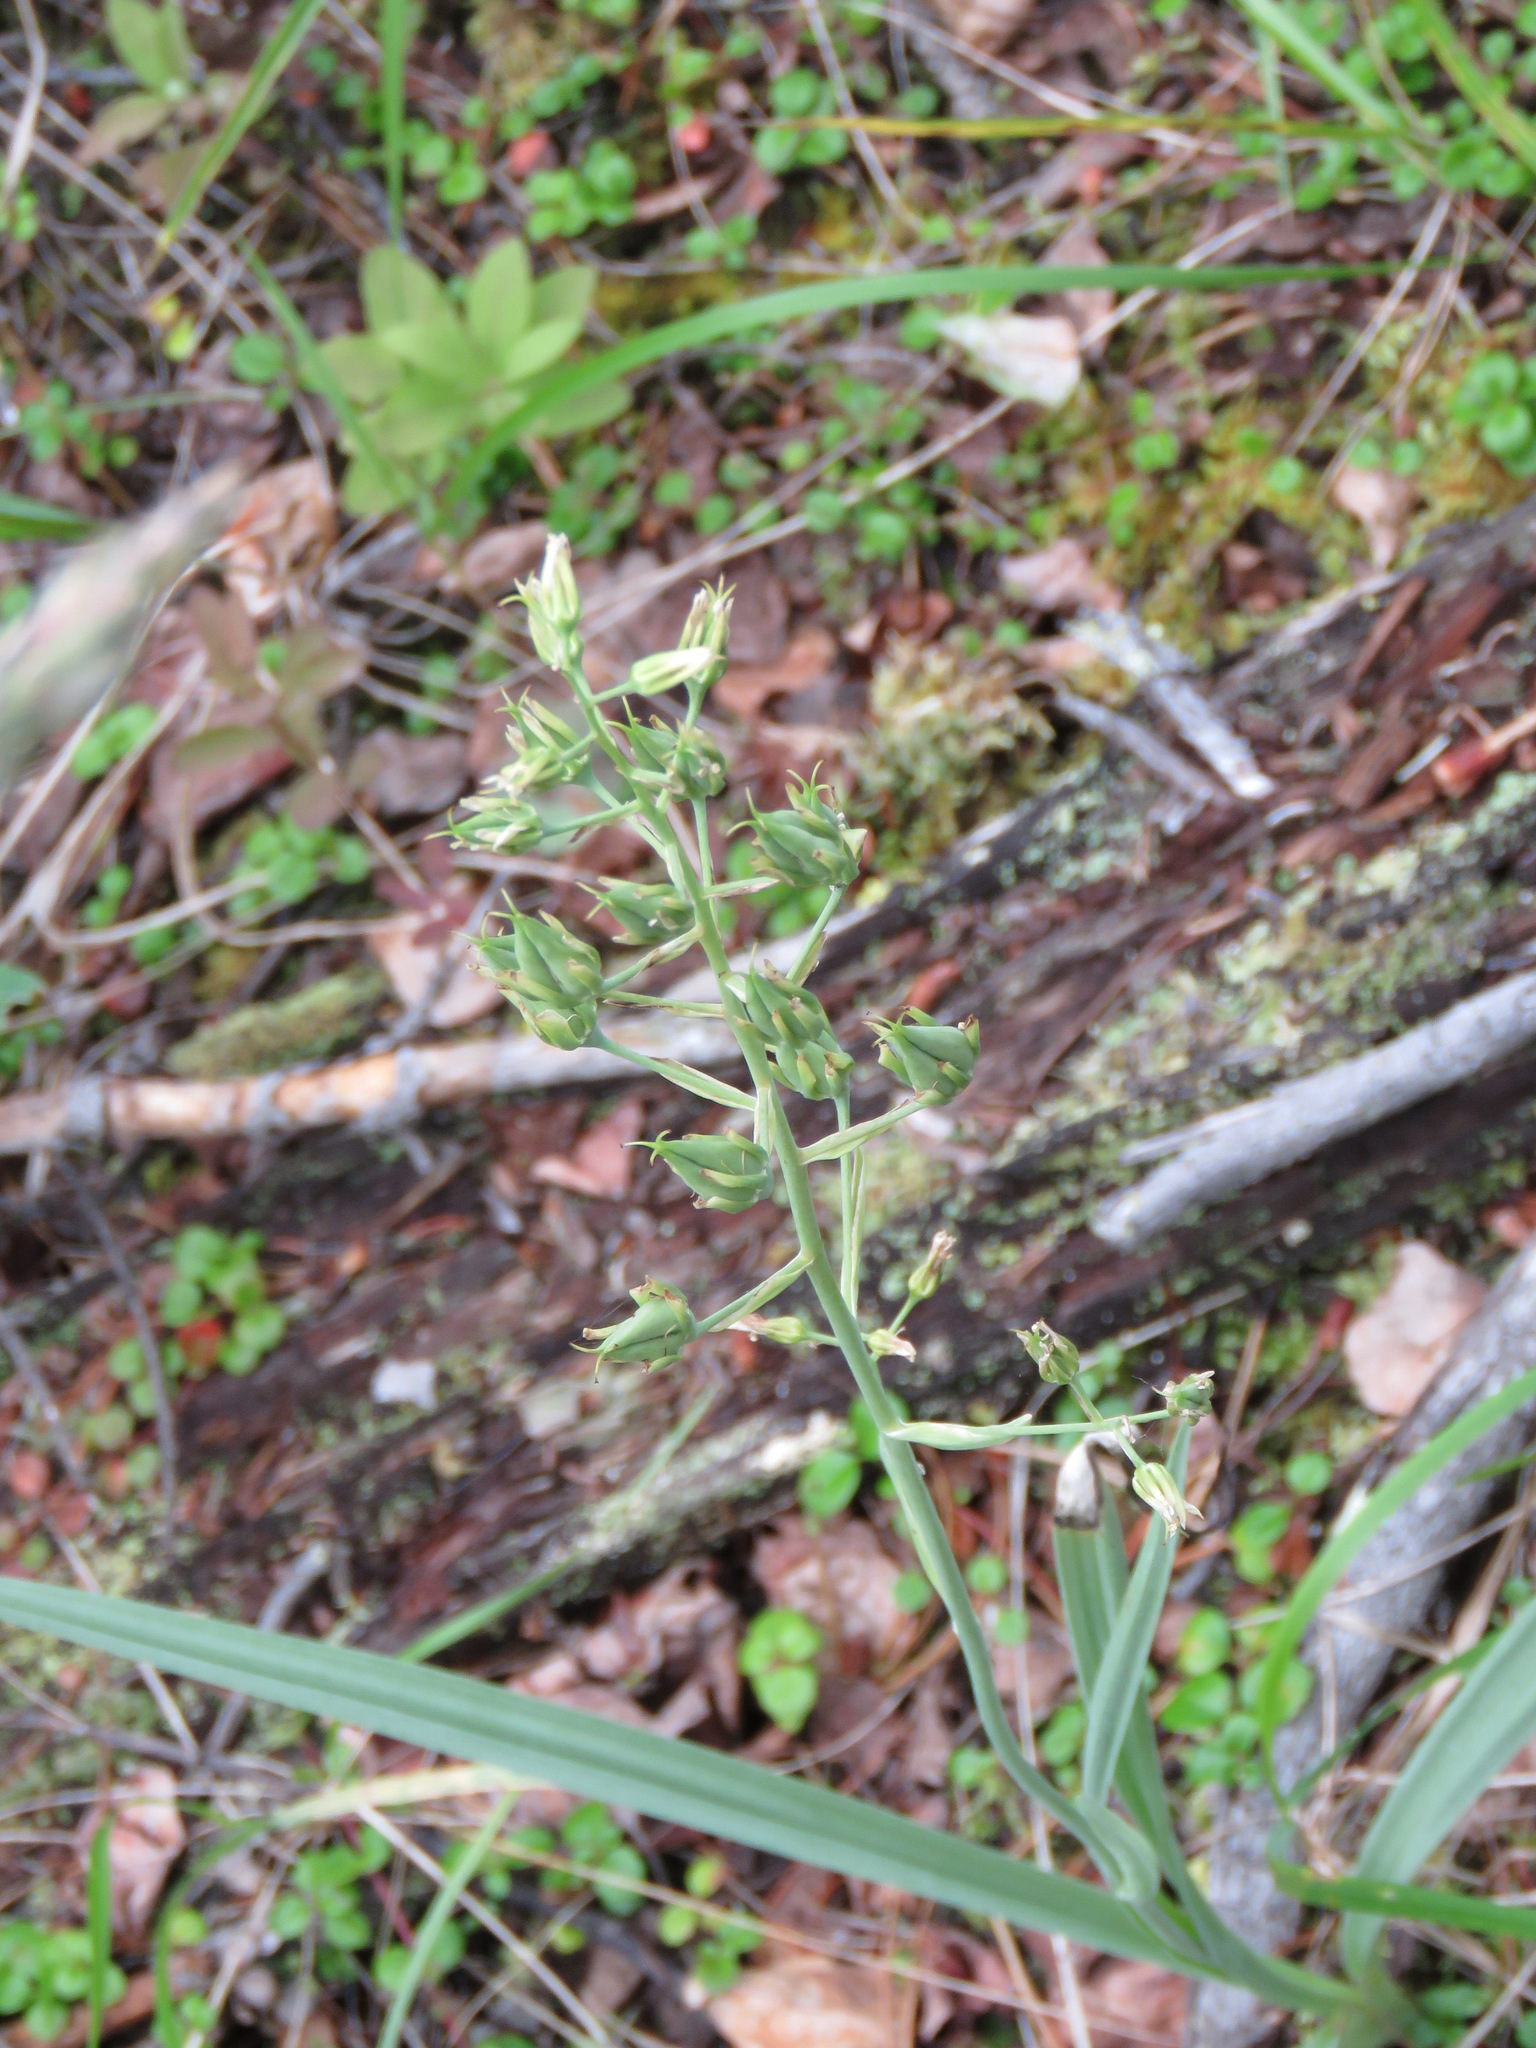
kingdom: Plantae
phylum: Tracheophyta
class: Liliopsida
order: Liliales
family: Melanthiaceae
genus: Anticlea
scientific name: Anticlea elegans
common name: Mountain death camas
